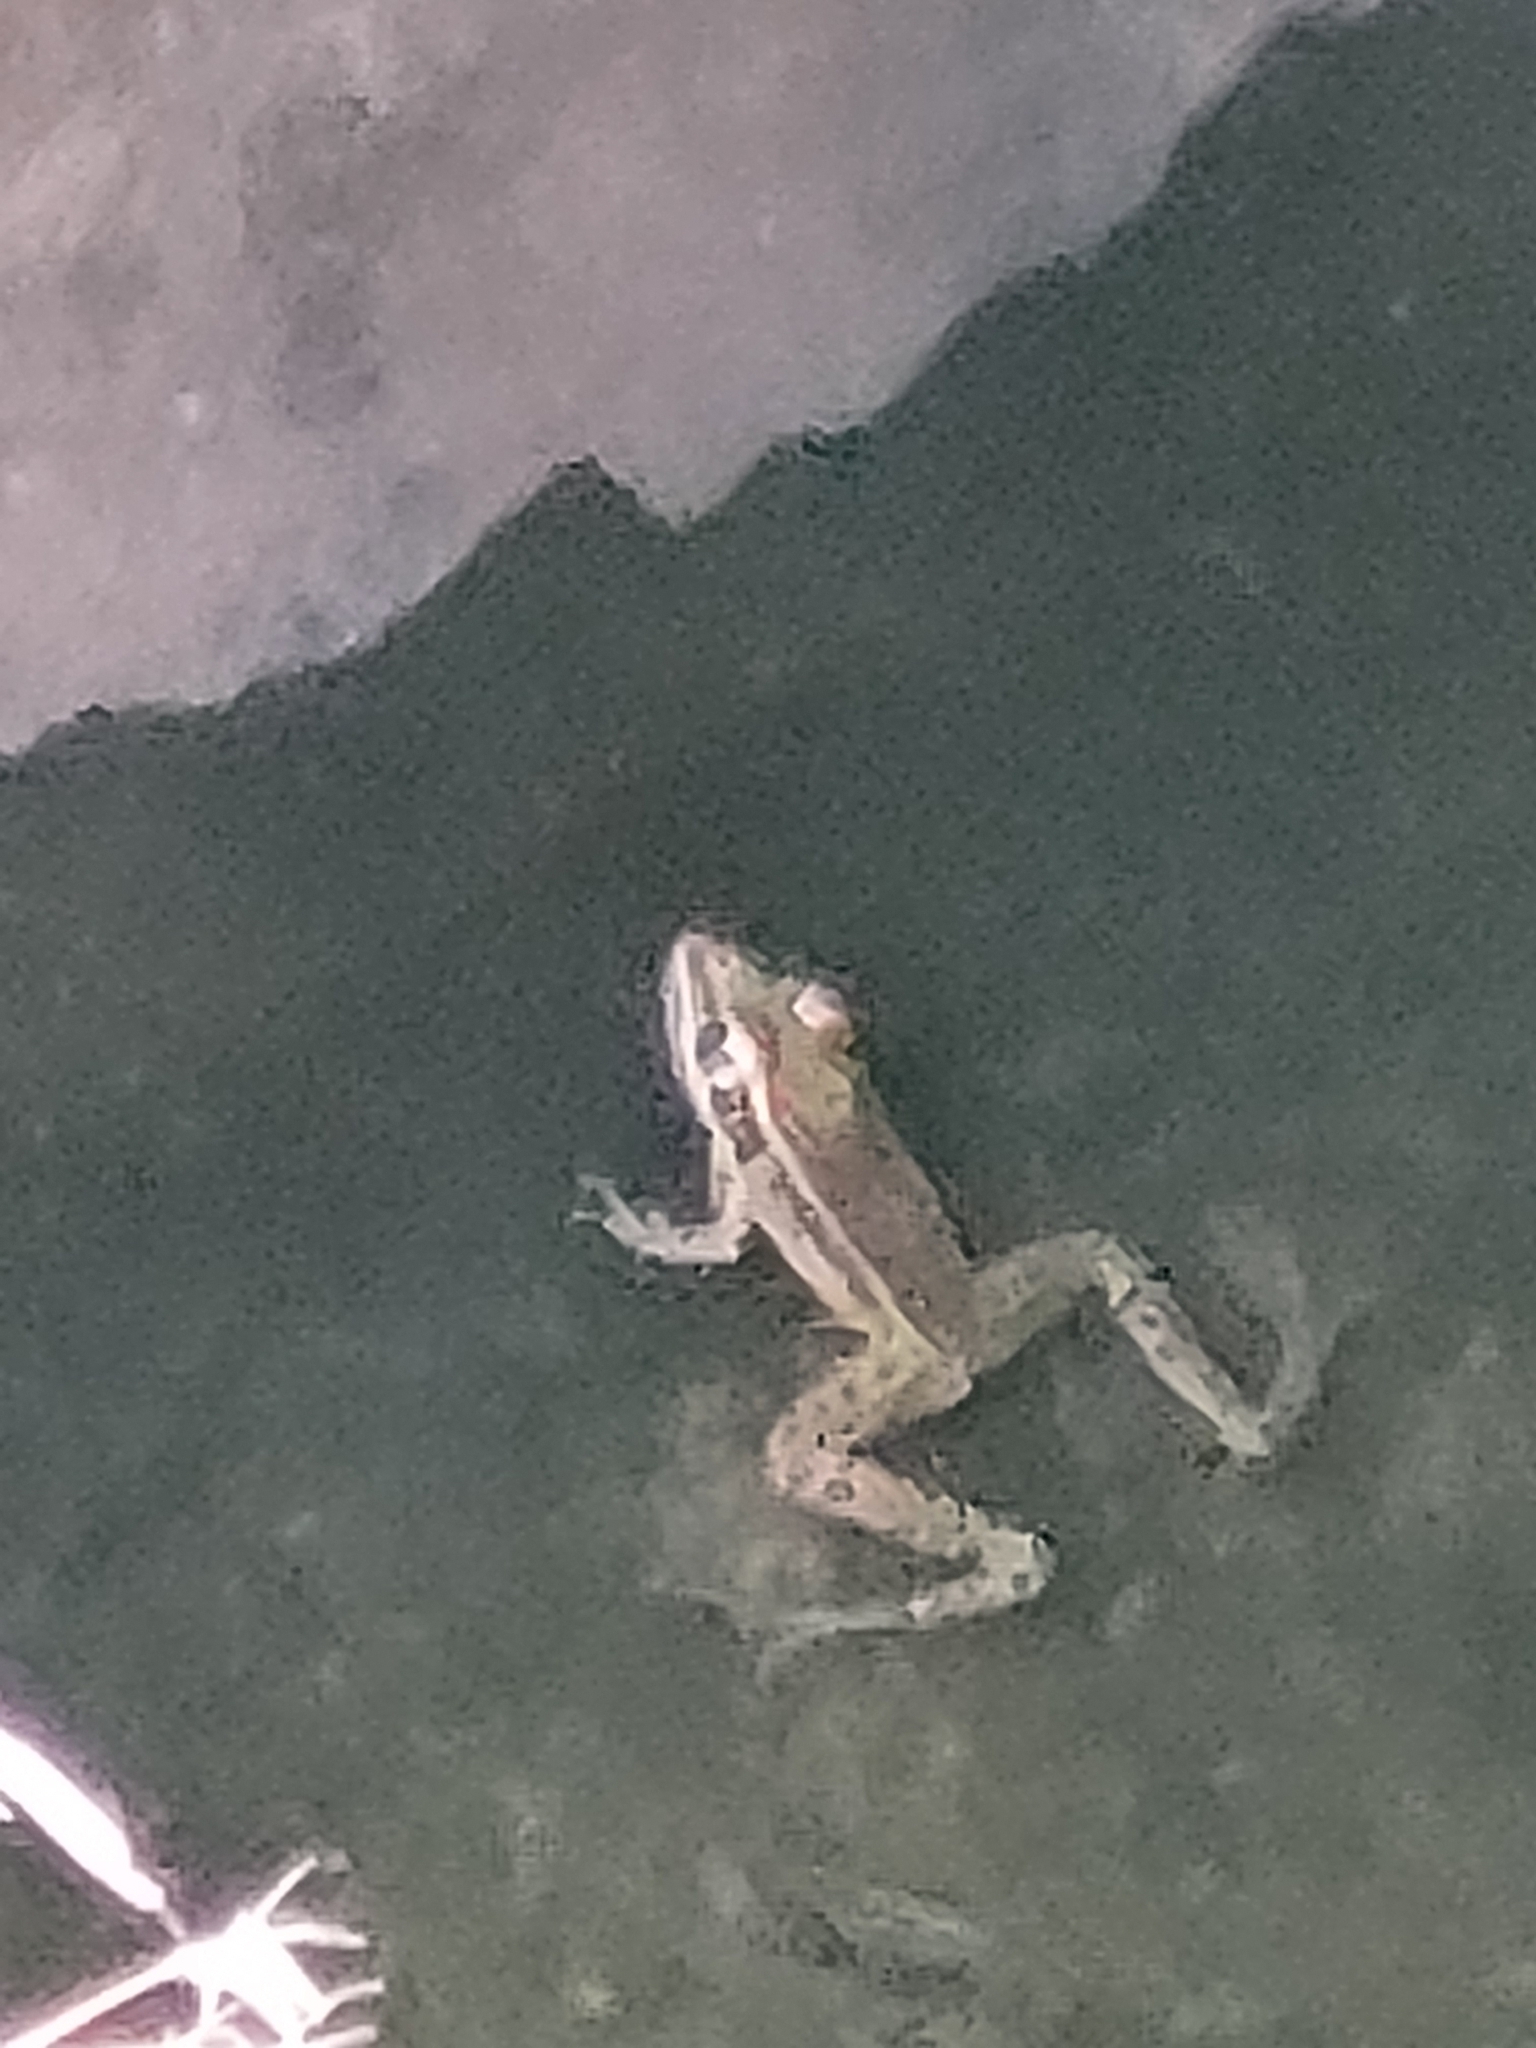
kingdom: Animalia
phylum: Chordata
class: Amphibia
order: Anura
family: Ranidae
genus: Lithobates
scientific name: Lithobates sphenocephalus
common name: Southern leopard frog
